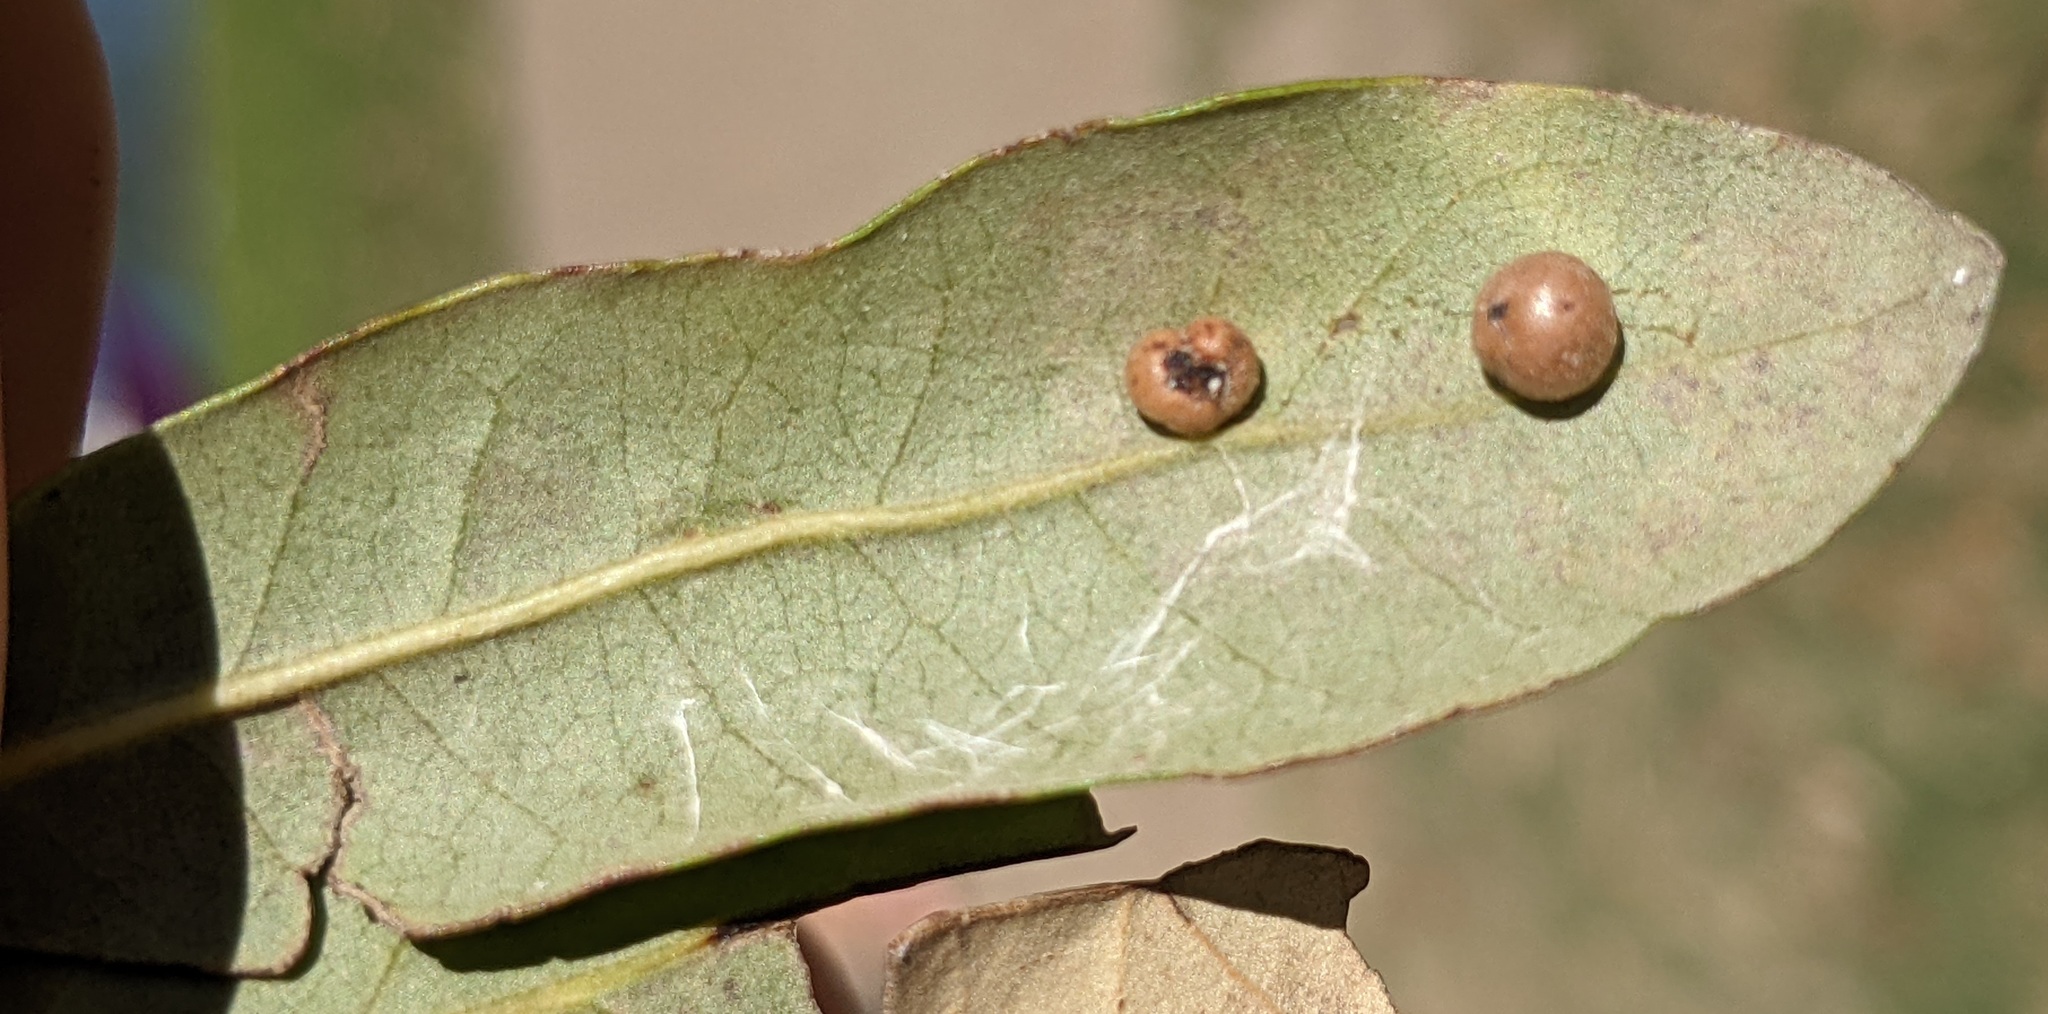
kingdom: Animalia
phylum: Arthropoda
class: Insecta
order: Hymenoptera
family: Cynipidae
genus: Belonocnema
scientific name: Belonocnema kinseyi
